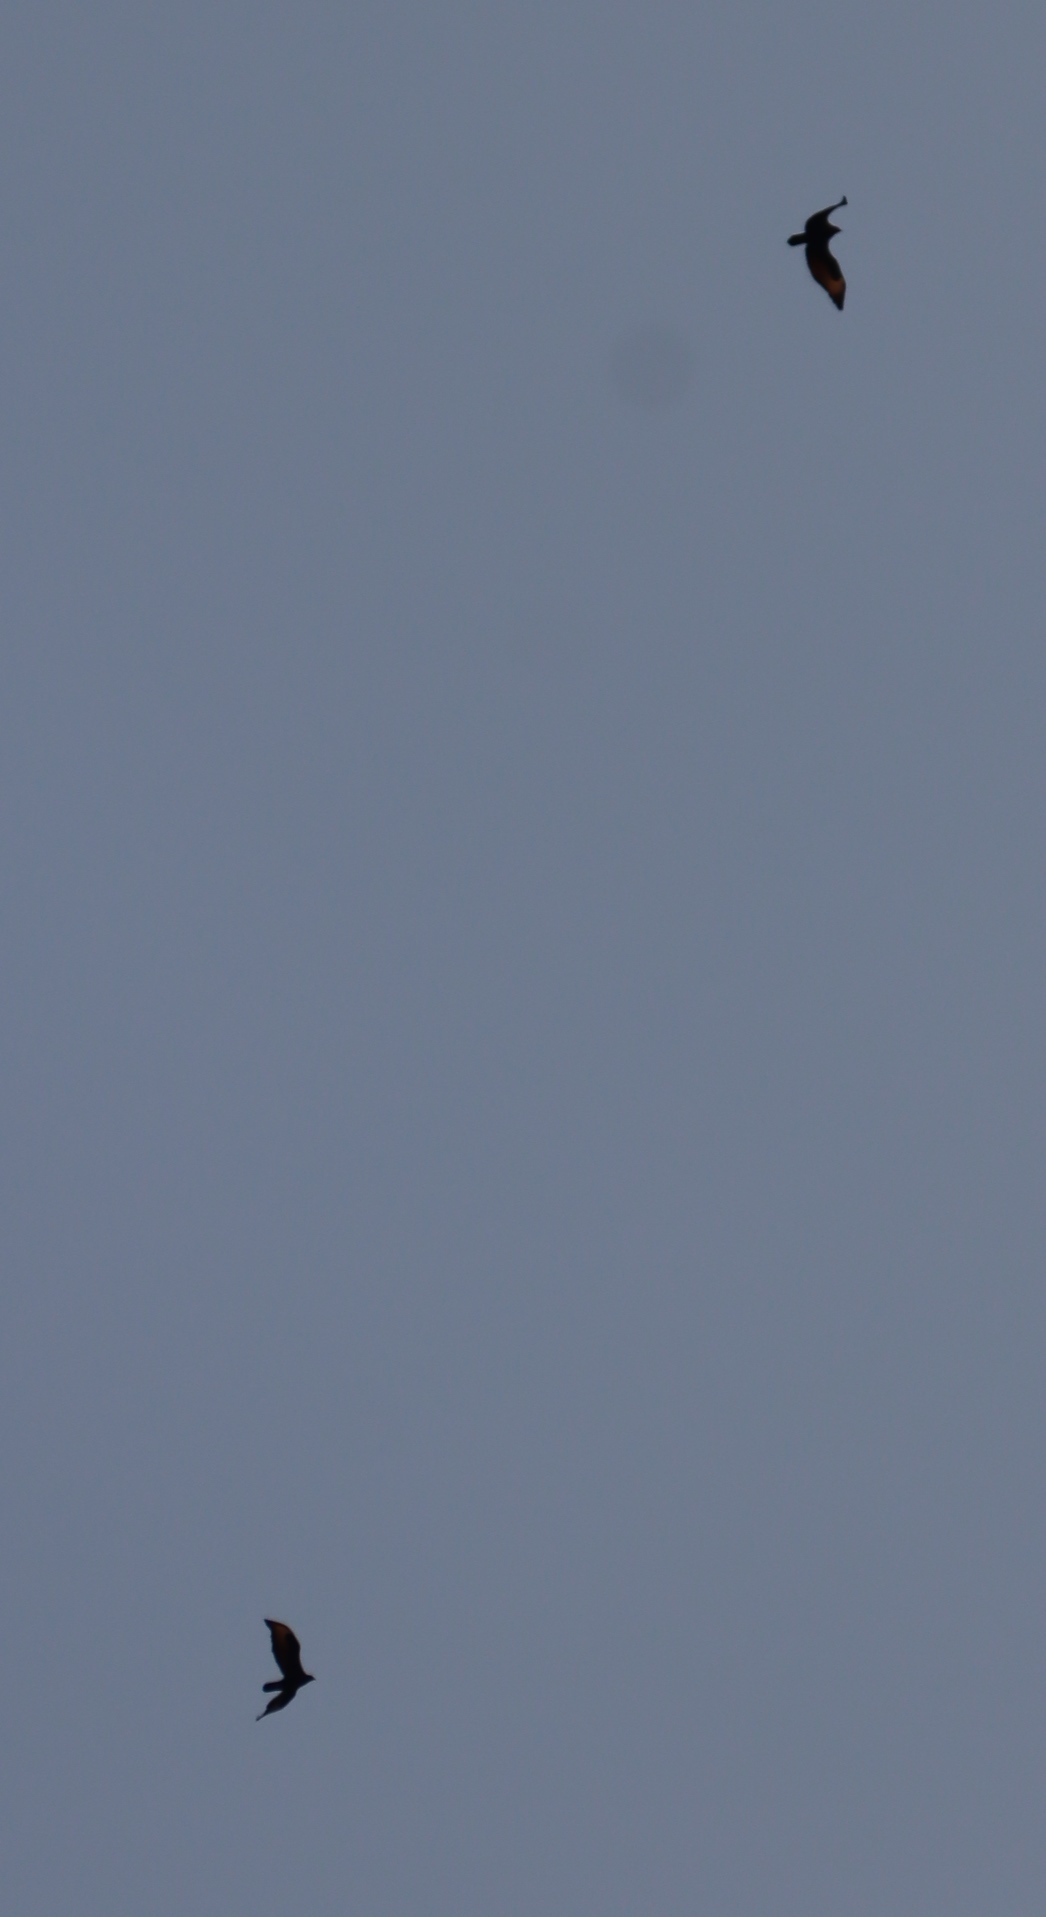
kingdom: Animalia
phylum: Chordata
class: Aves
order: Accipitriformes
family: Accipitridae
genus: Aquila
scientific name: Aquila verreauxii
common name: Verreaux's eagle
